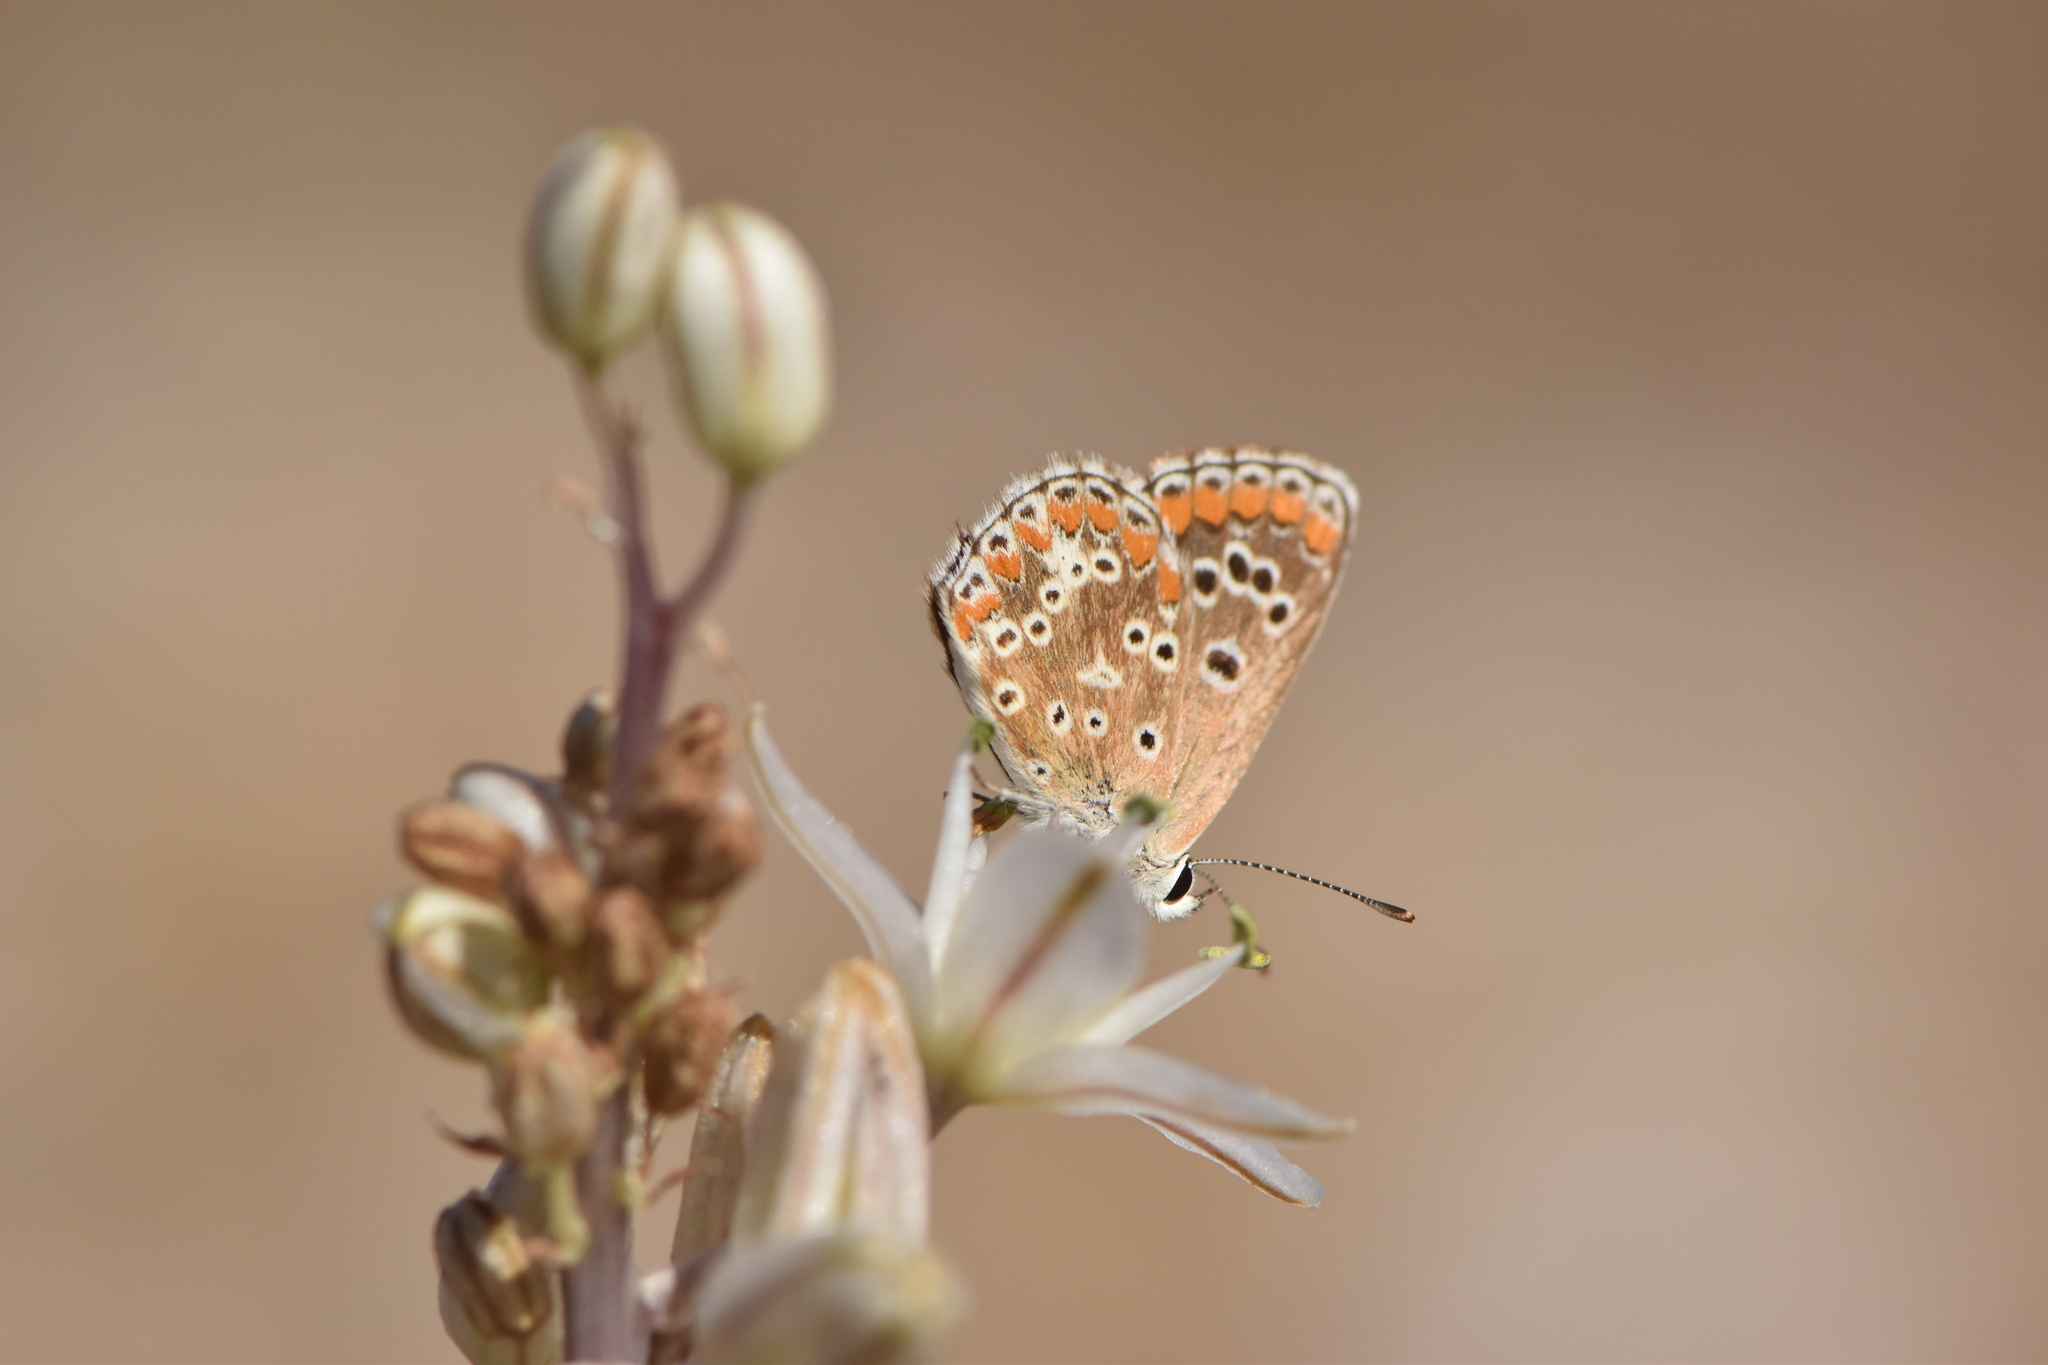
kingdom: Animalia
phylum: Arthropoda
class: Insecta
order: Lepidoptera
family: Lycaenidae
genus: Aricia
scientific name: Aricia cramera
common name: Eschscholtz´s brown  argus
